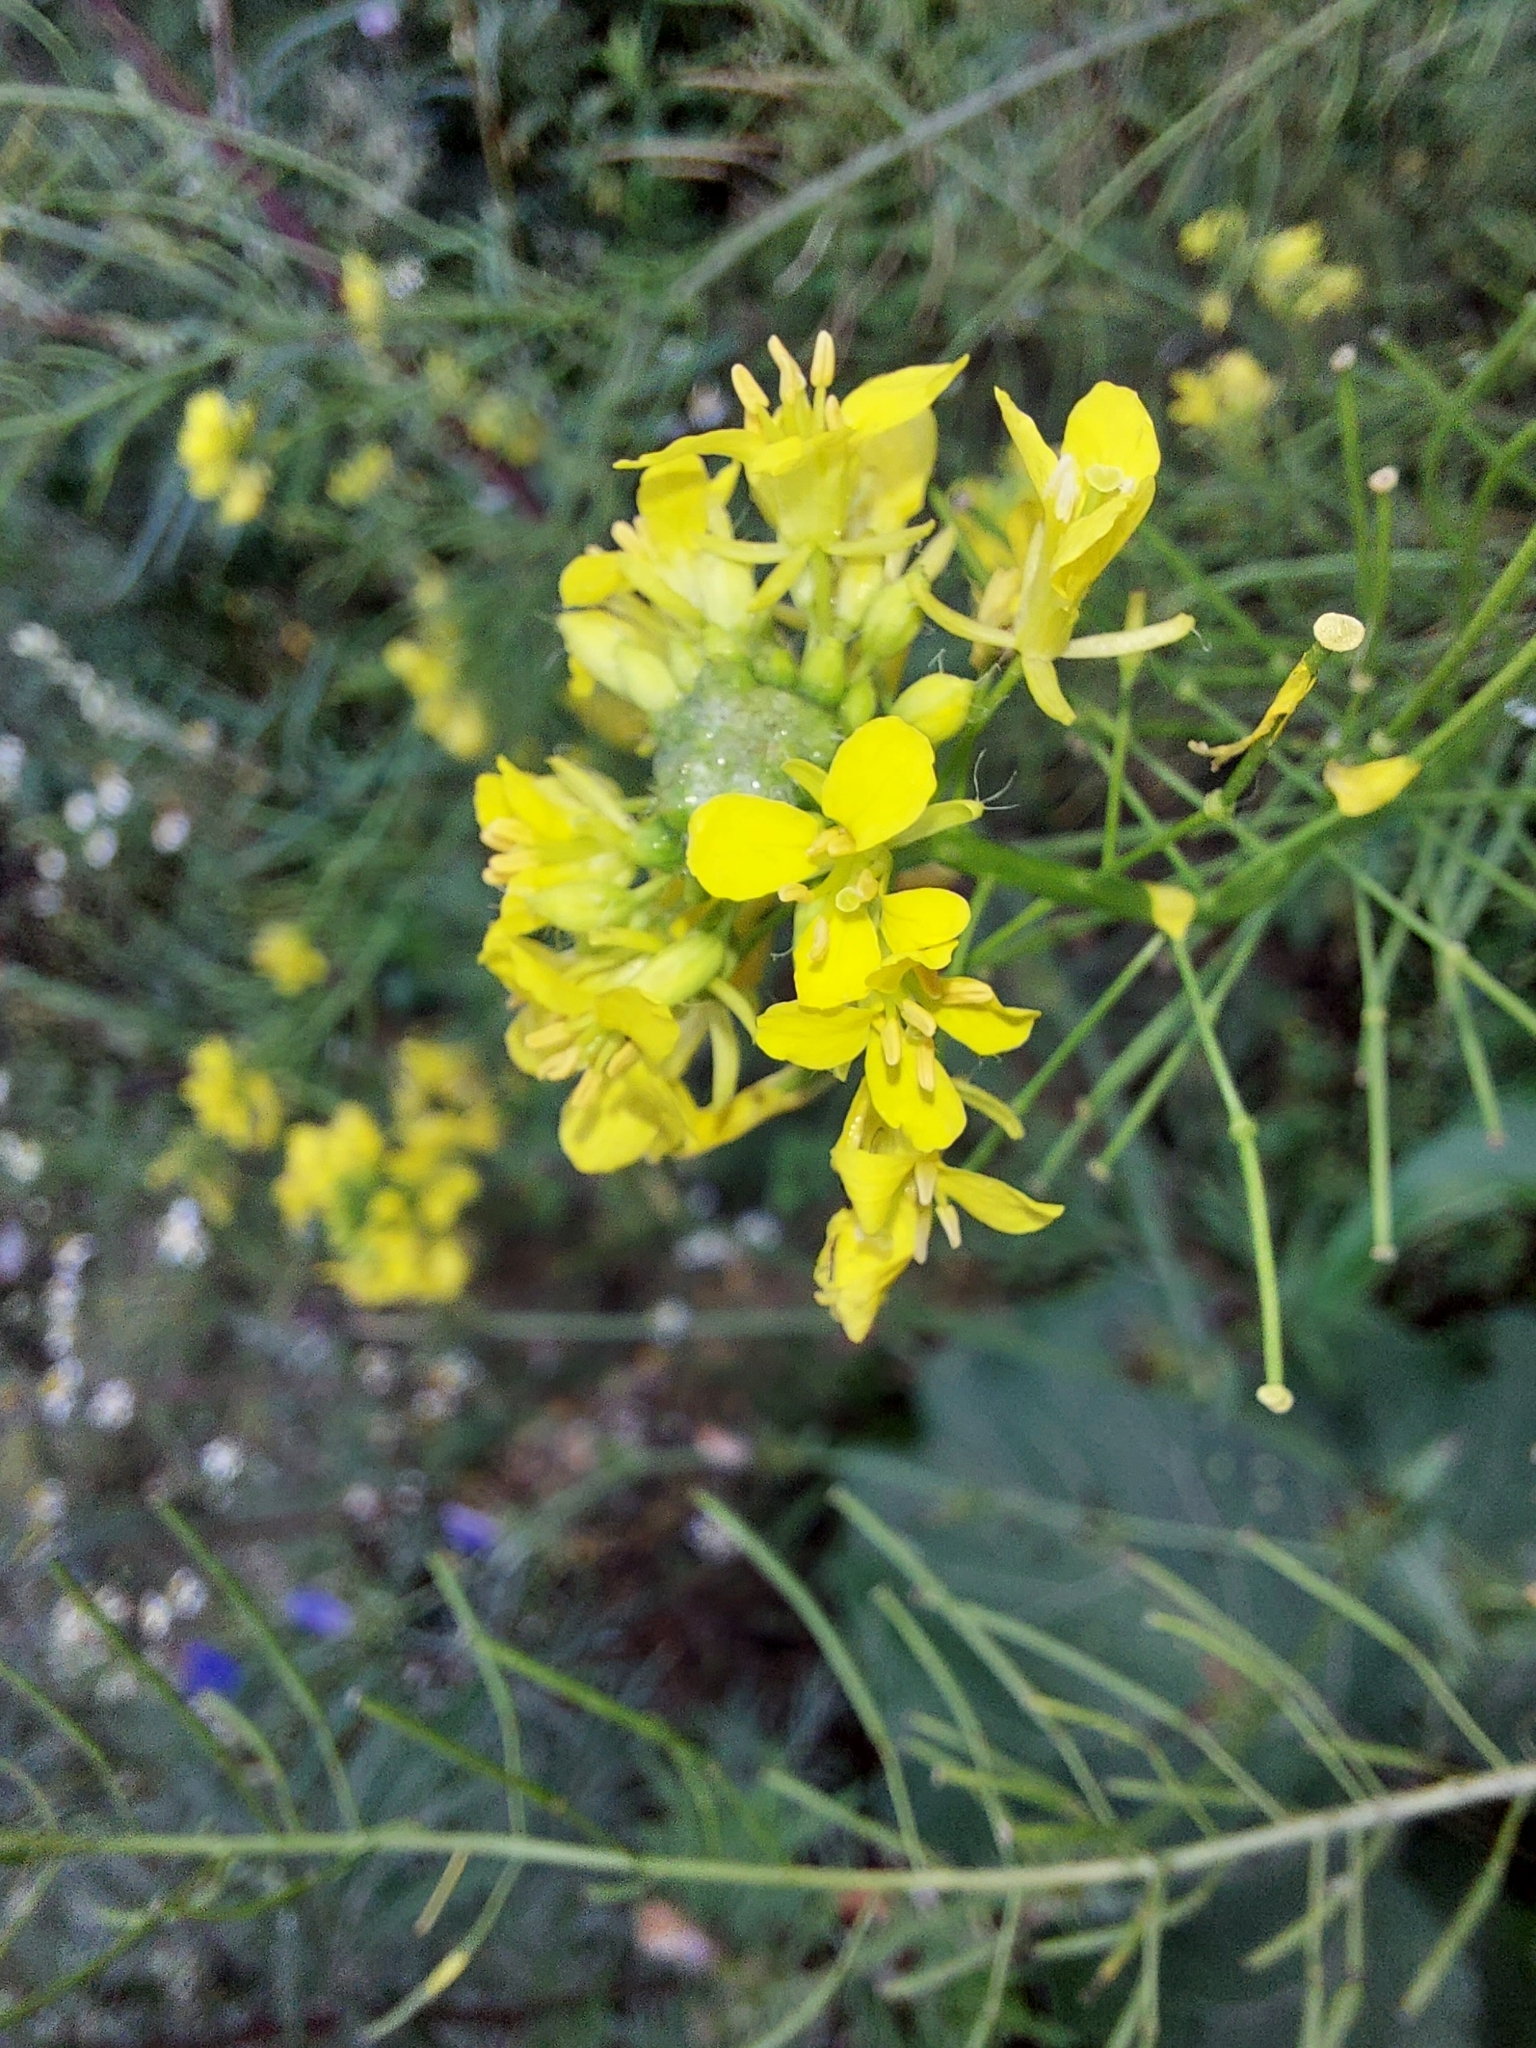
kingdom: Plantae
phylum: Tracheophyta
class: Magnoliopsida
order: Brassicales
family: Brassicaceae
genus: Sisymbrium
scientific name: Sisymbrium loeselii
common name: False london-rocket
